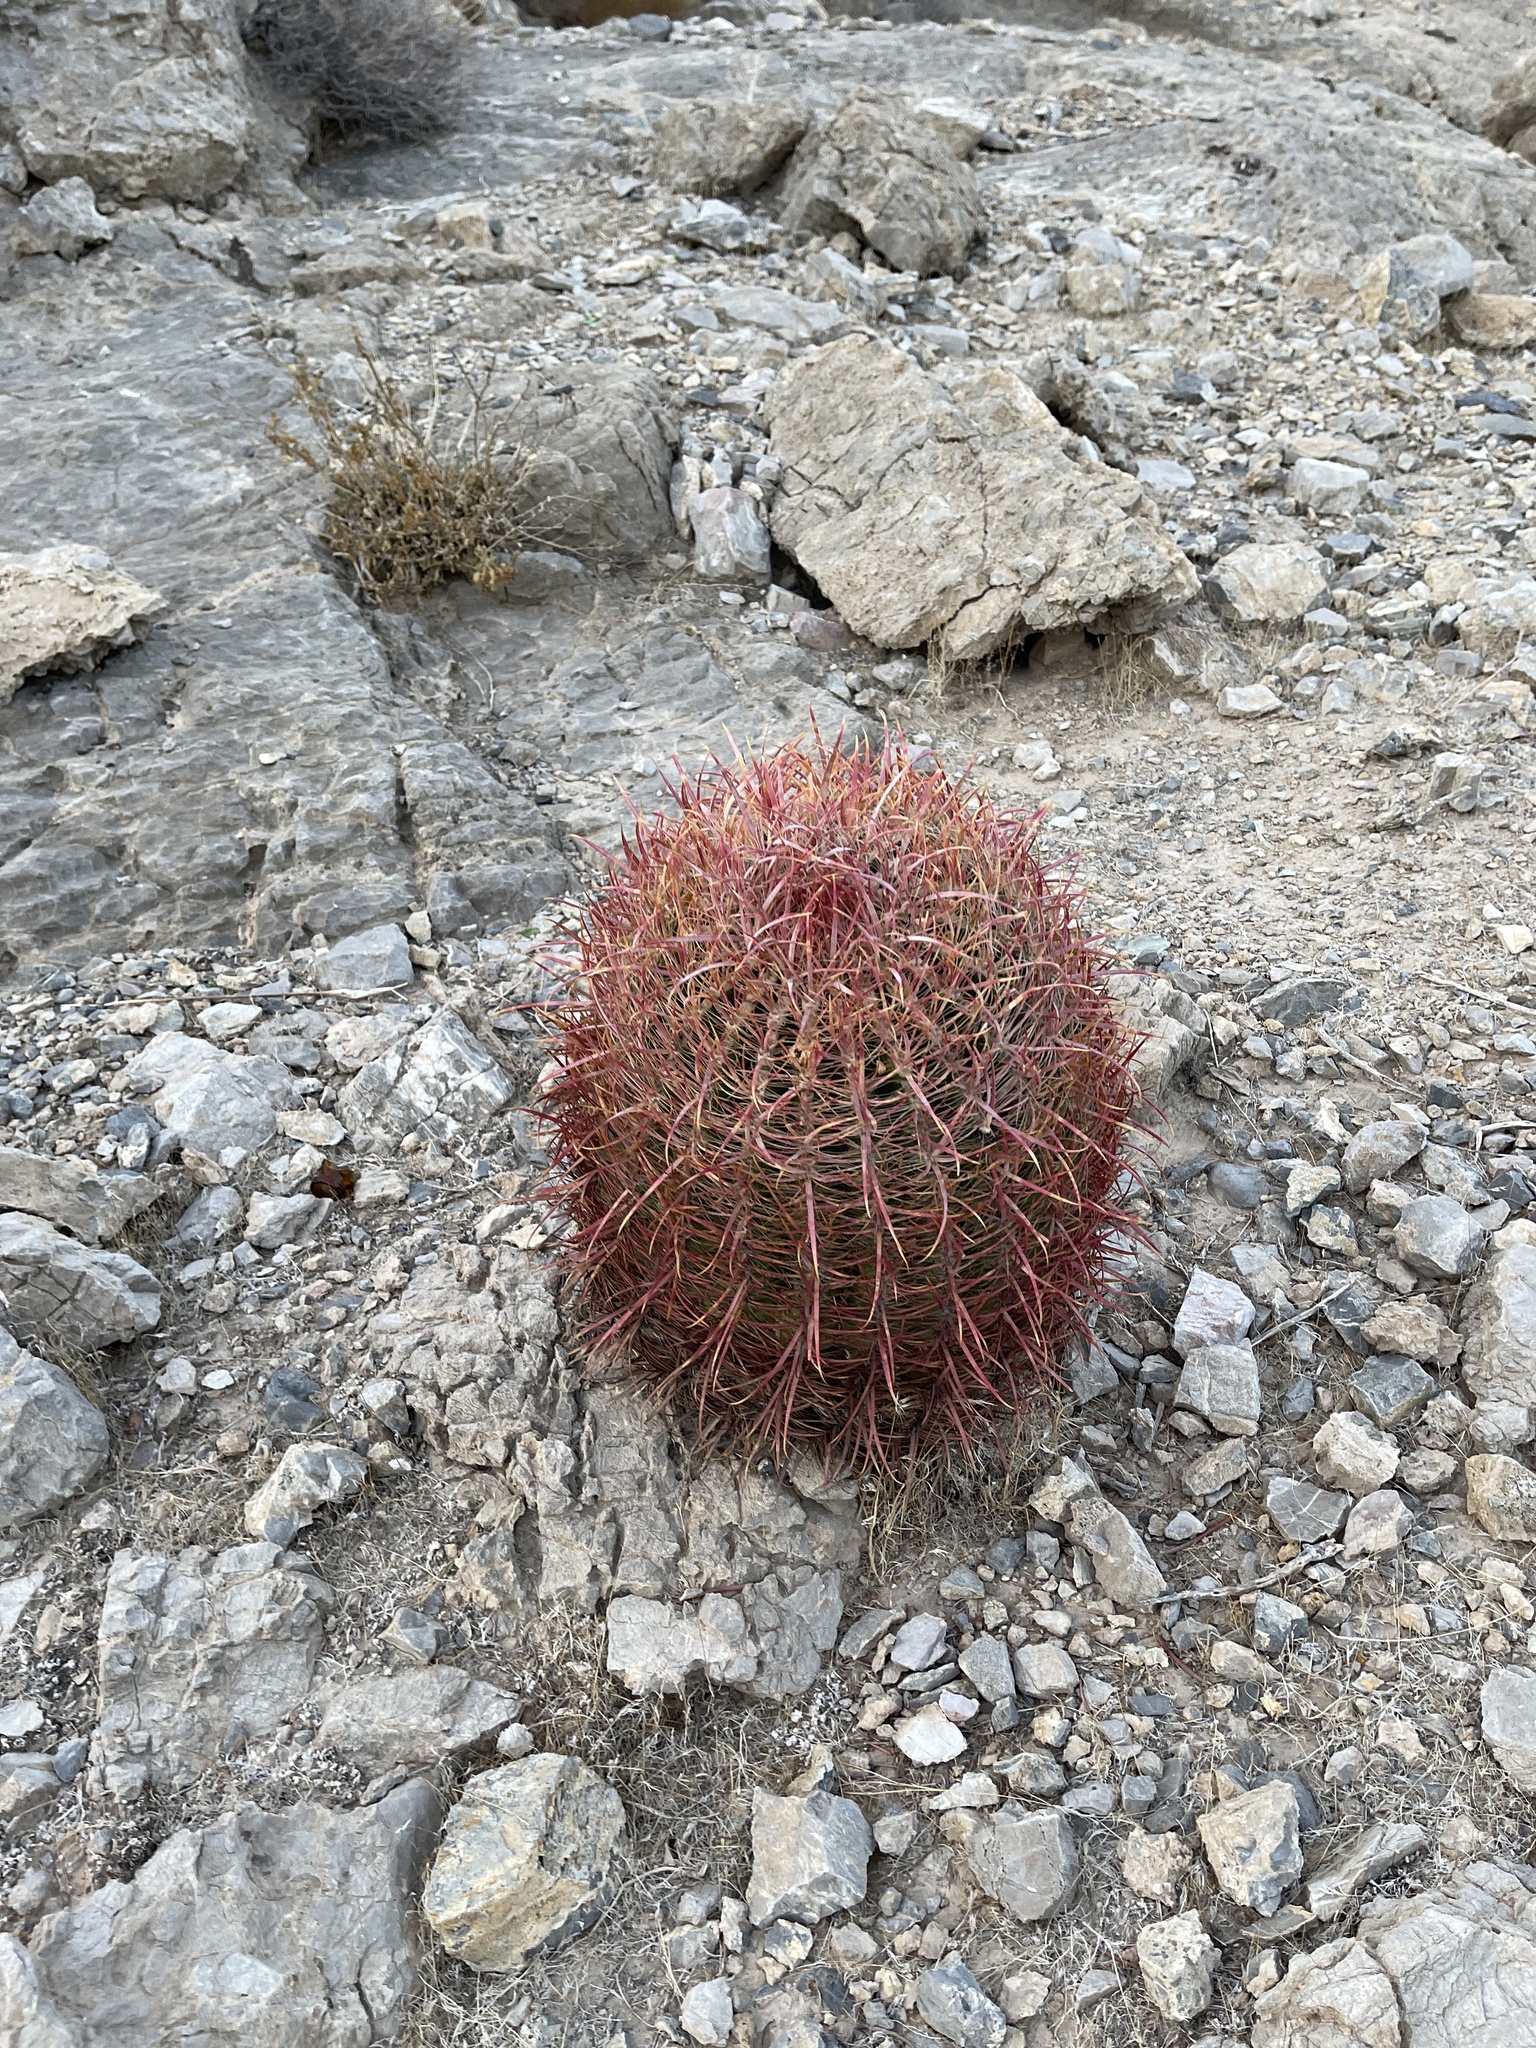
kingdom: Plantae
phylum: Tracheophyta
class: Magnoliopsida
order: Caryophyllales
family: Cactaceae
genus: Ferocactus
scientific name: Ferocactus cylindraceus
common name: California barrel cactus
